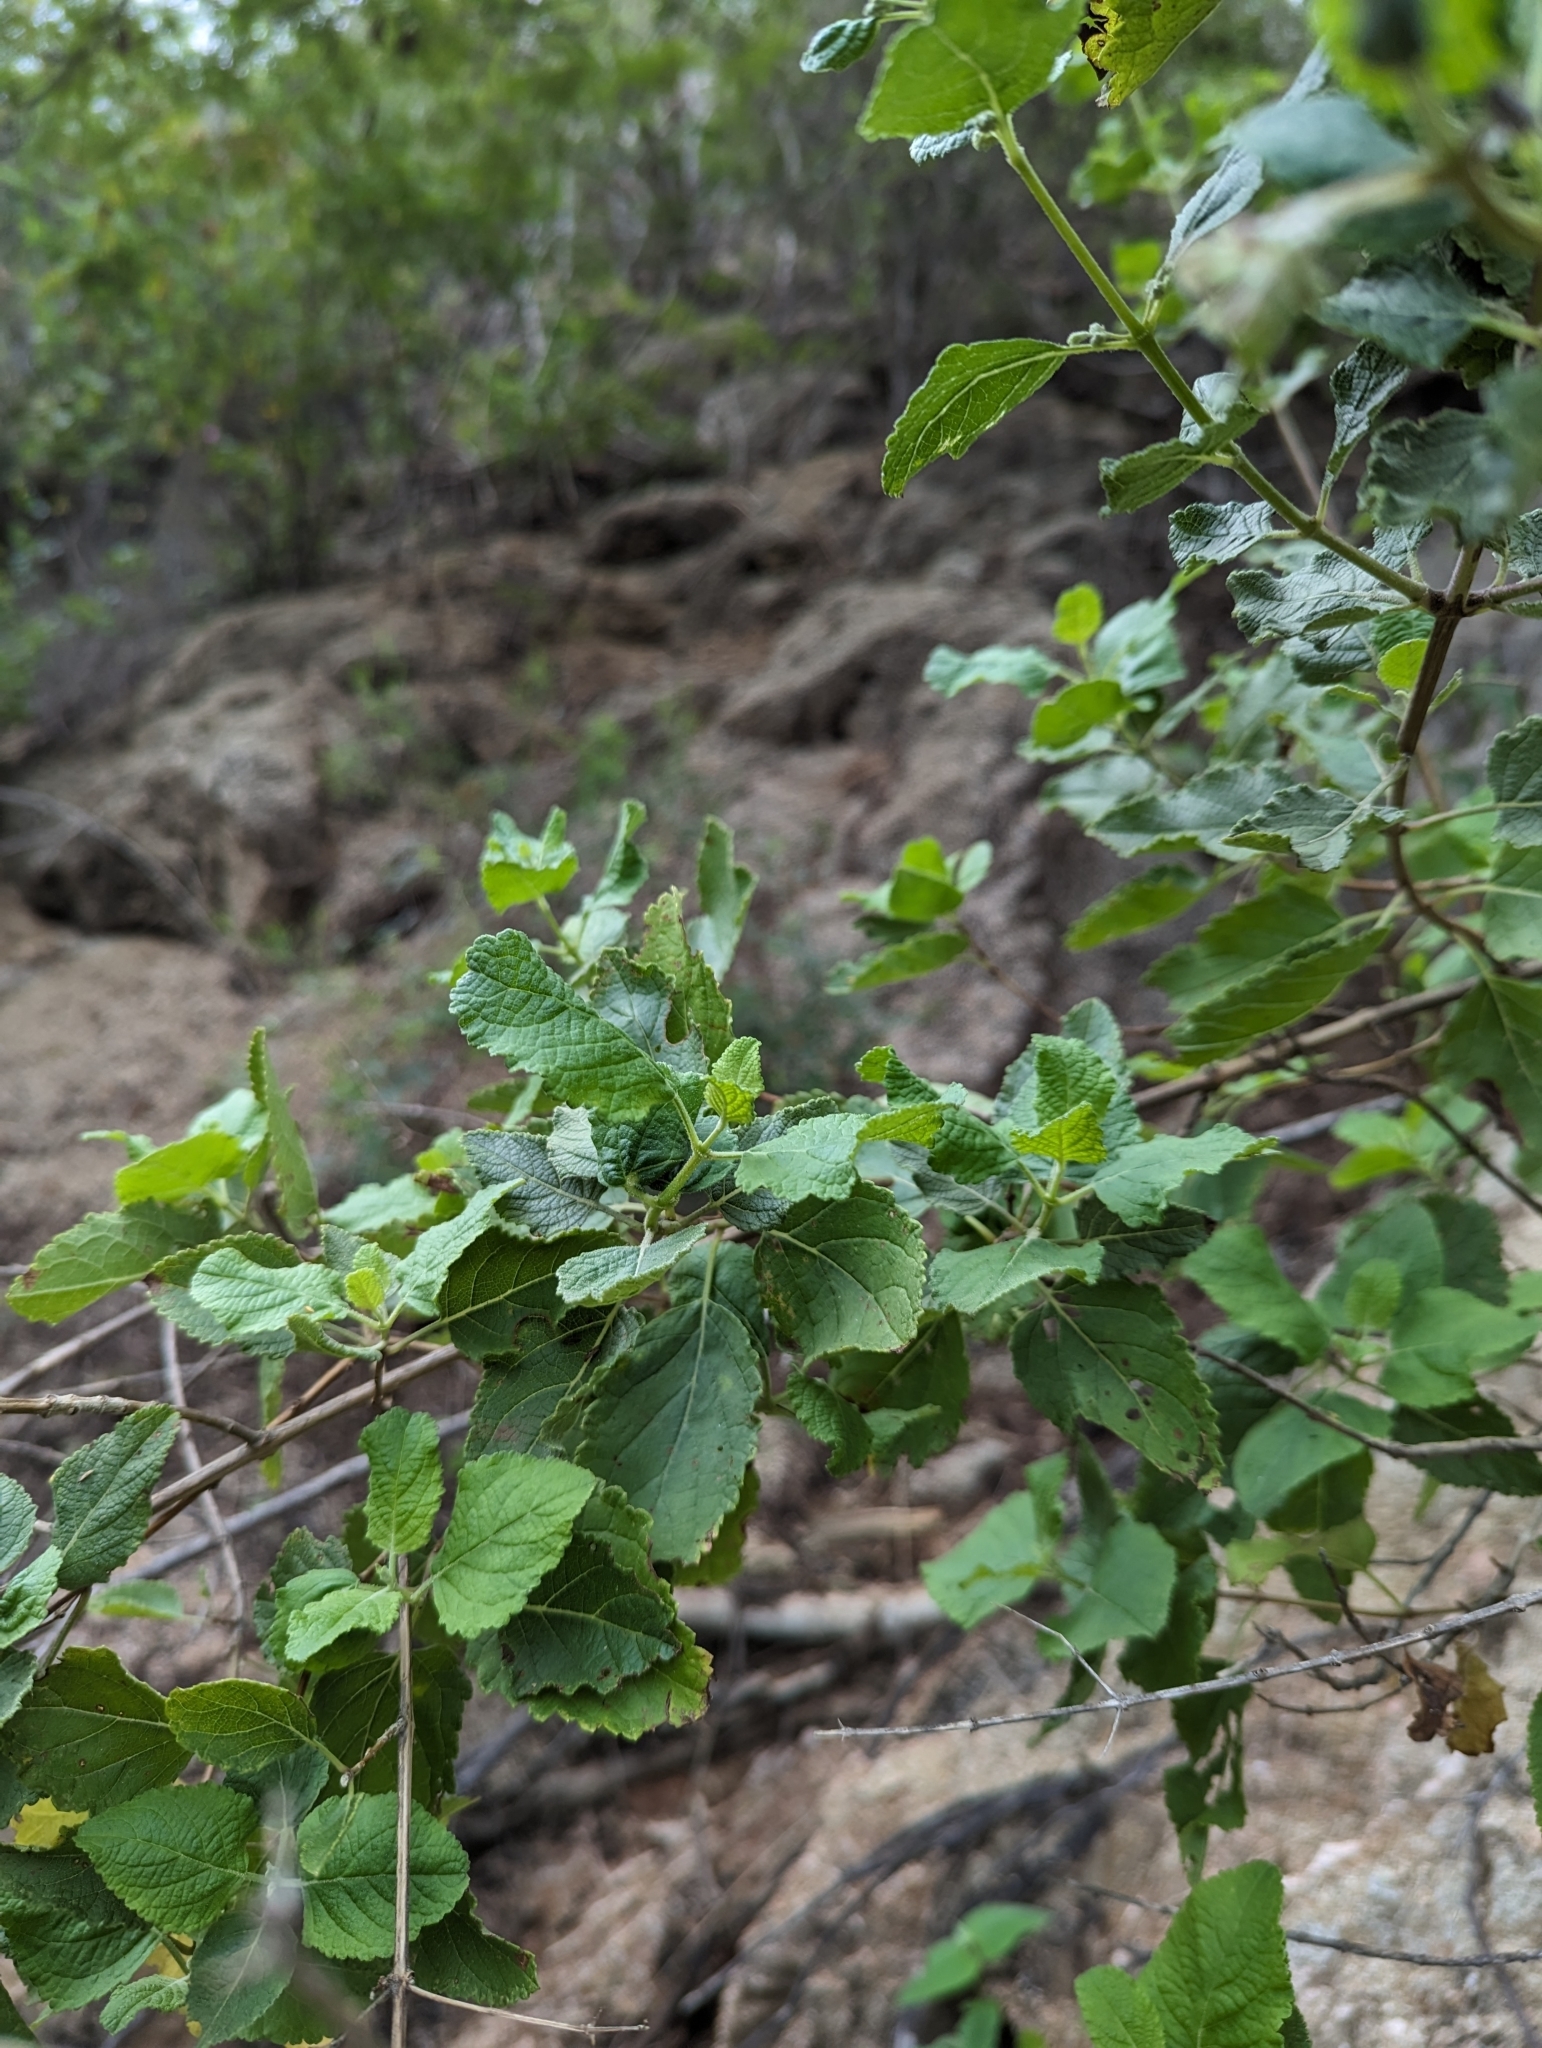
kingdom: Plantae
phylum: Tracheophyta
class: Magnoliopsida
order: Lamiales
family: Lamiaceae
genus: Condea
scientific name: Condea decipiens
